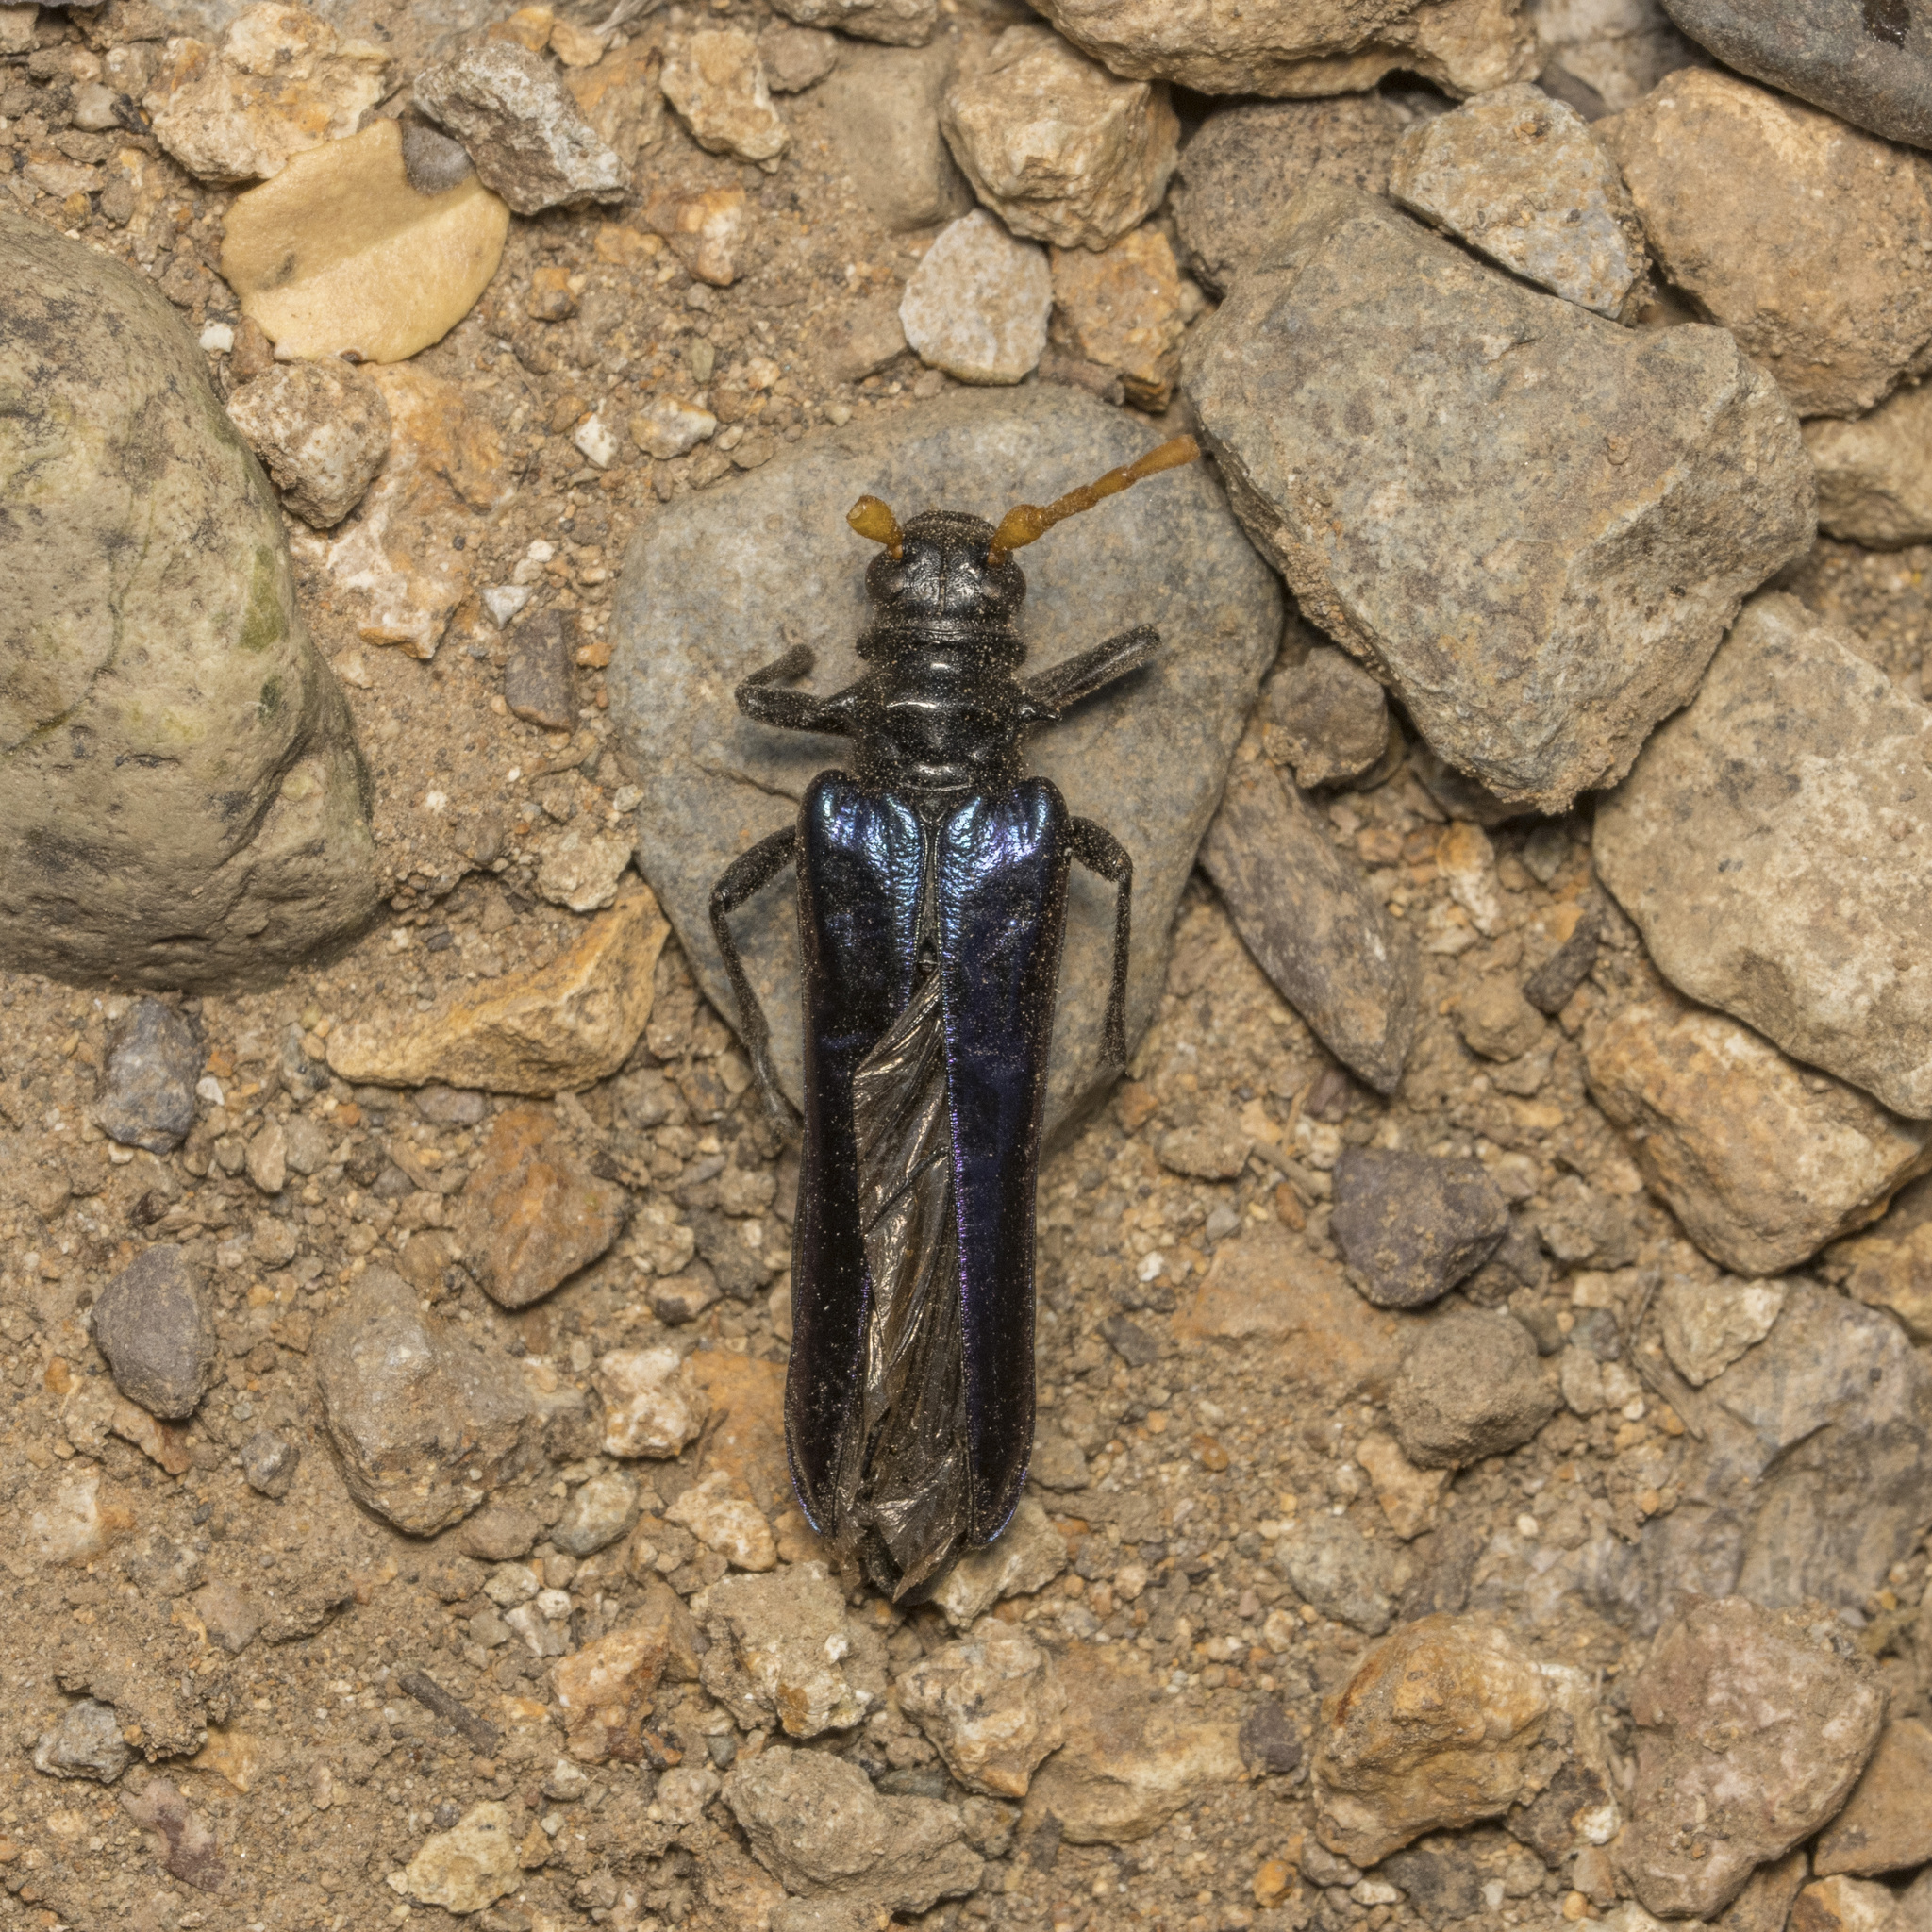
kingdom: Animalia
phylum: Arthropoda
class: Insecta
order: Coleoptera
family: Cerambycidae
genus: Hephaestion
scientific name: Hephaestion pallidicornis
